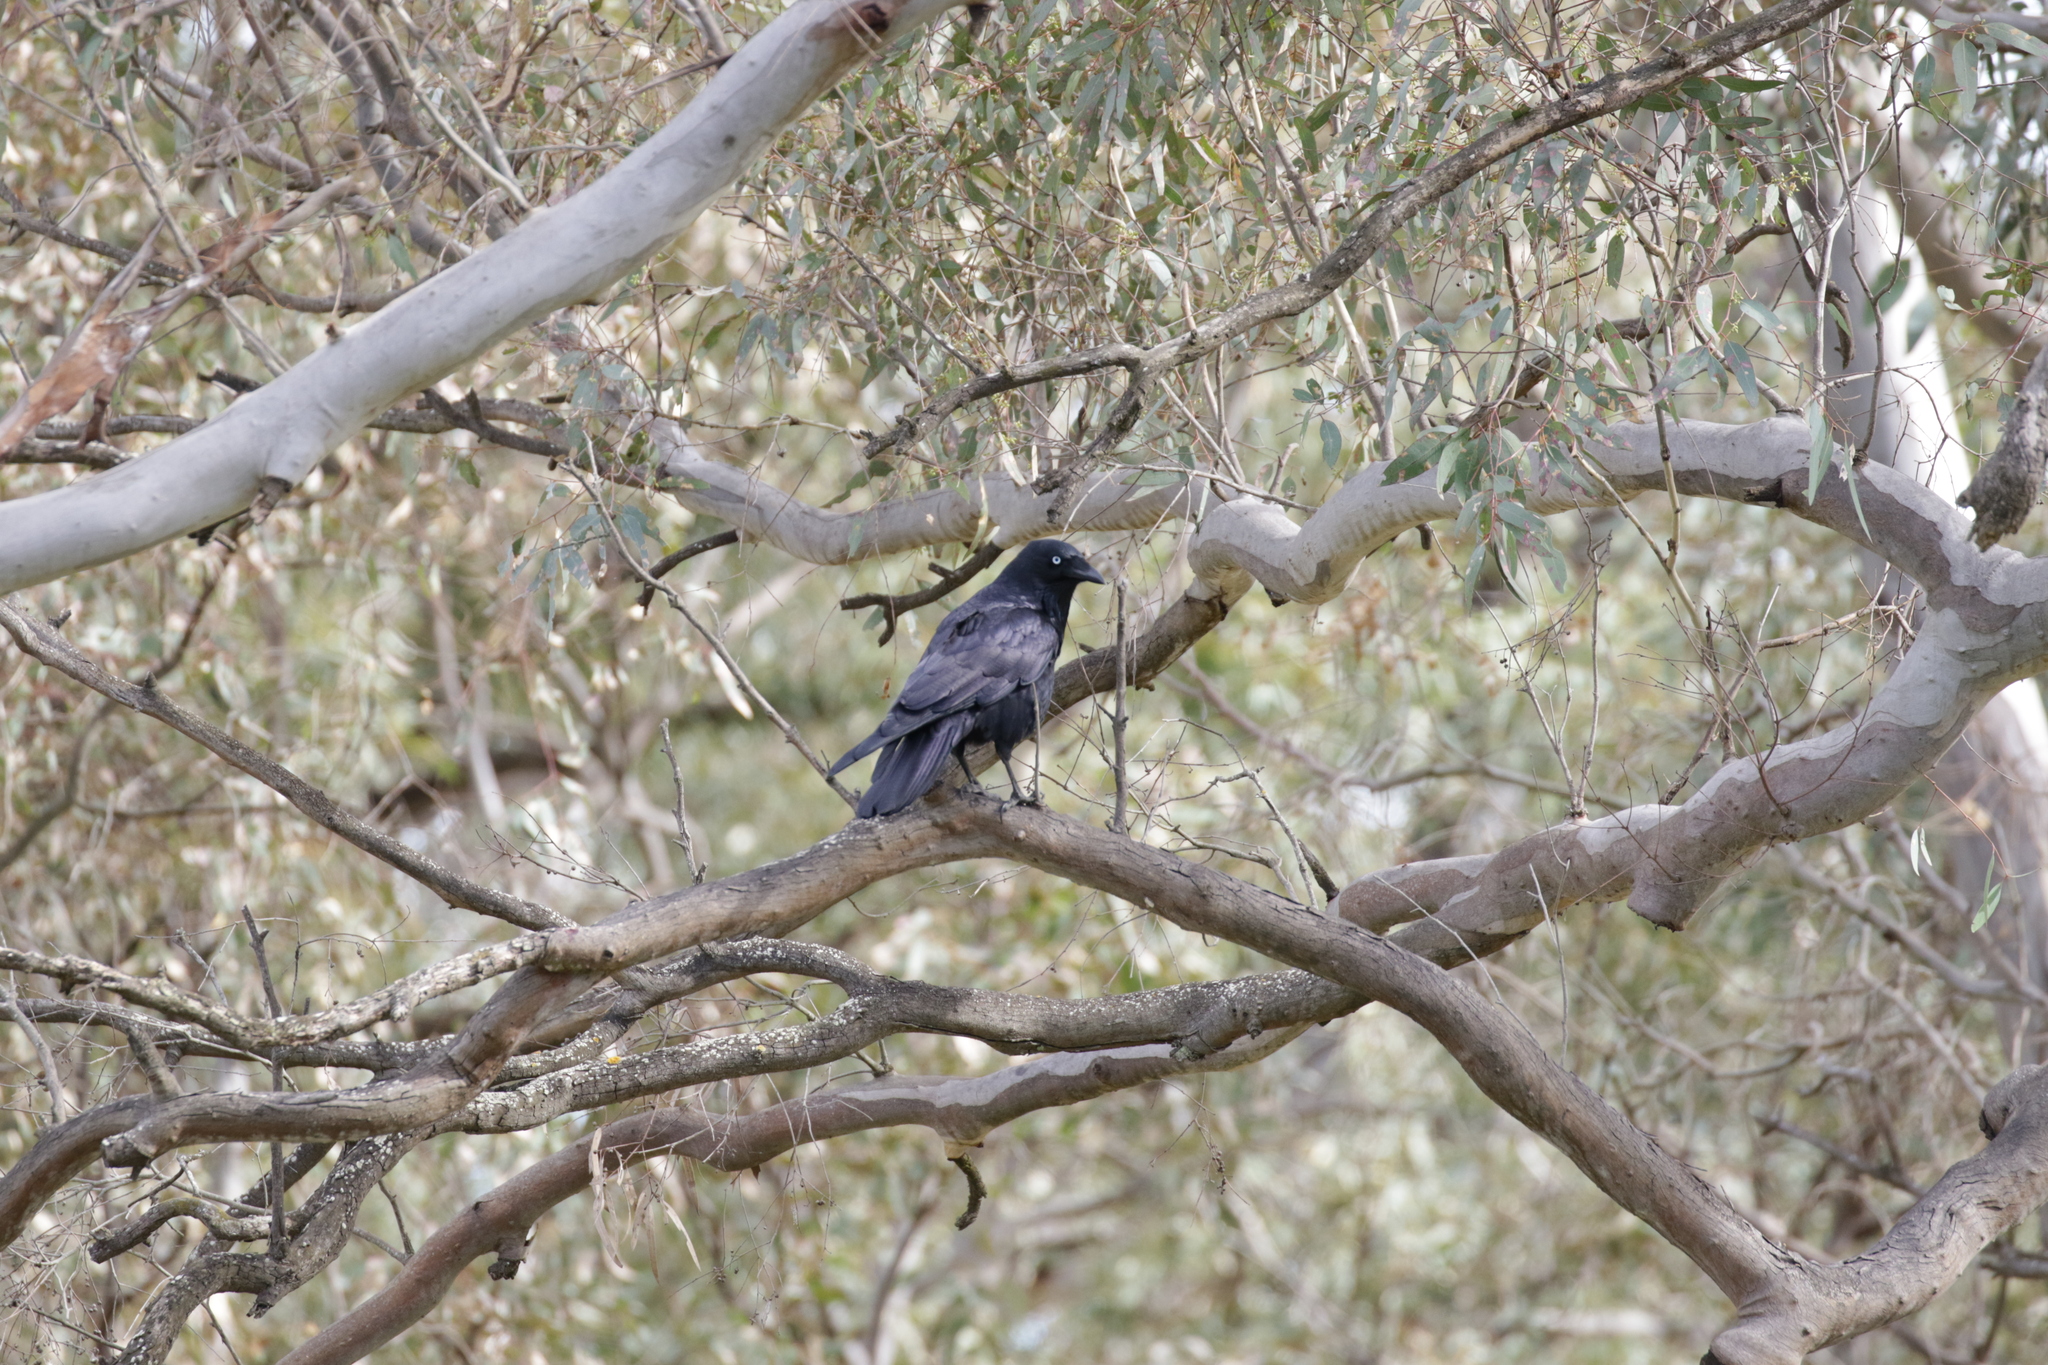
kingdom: Animalia
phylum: Chordata
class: Aves
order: Passeriformes
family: Corvidae
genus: Corvus
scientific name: Corvus mellori
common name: Little raven
